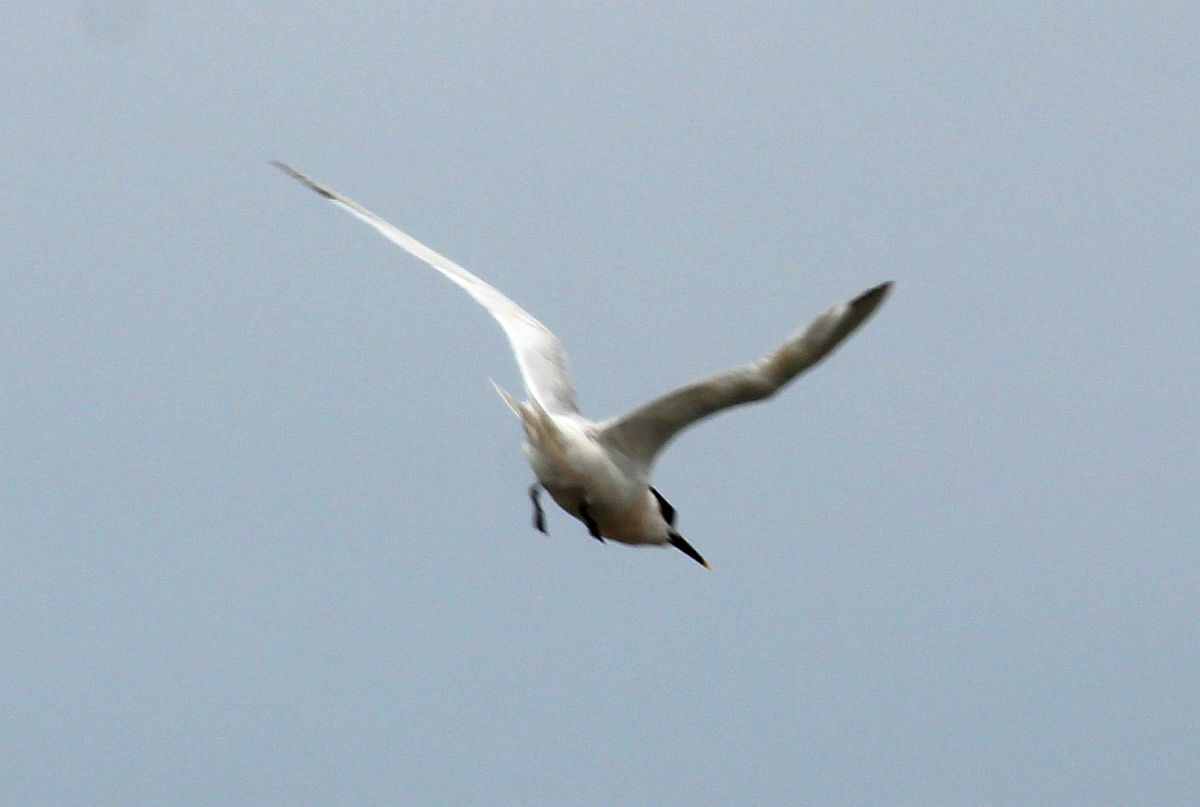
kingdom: Animalia
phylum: Chordata
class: Aves
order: Charadriiformes
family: Laridae
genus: Thalasseus
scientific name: Thalasseus sandvicensis
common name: Sandwich tern
